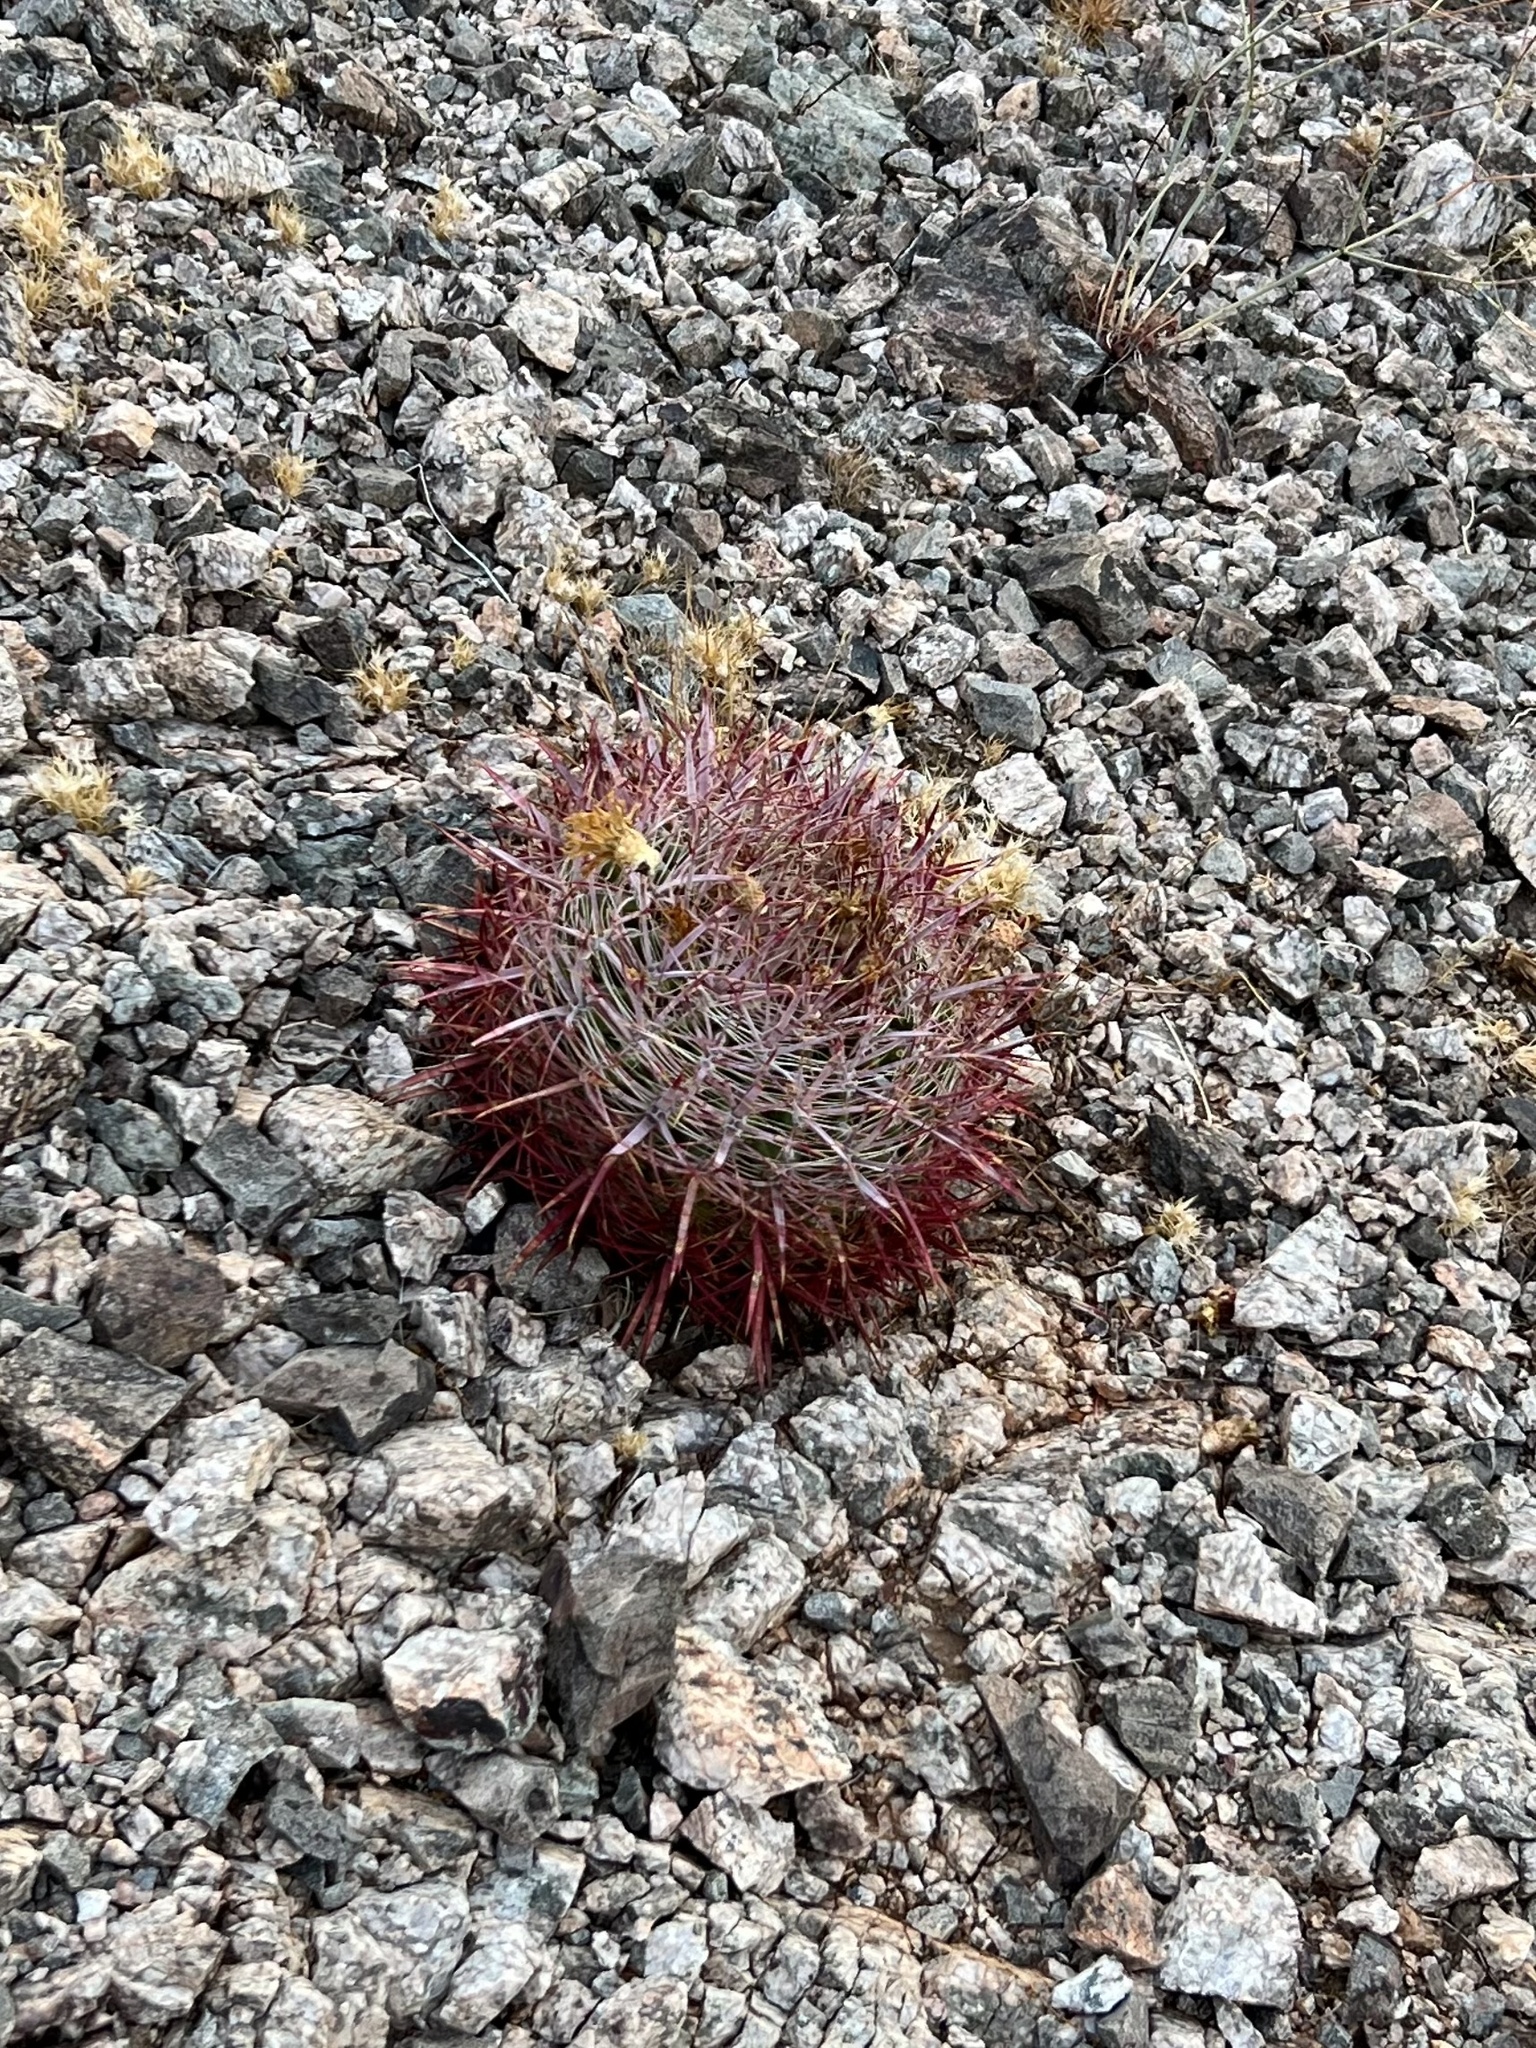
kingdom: Plantae
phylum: Tracheophyta
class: Magnoliopsida
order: Caryophyllales
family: Cactaceae
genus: Ferocactus
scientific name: Ferocactus cylindraceus
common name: California barrel cactus
